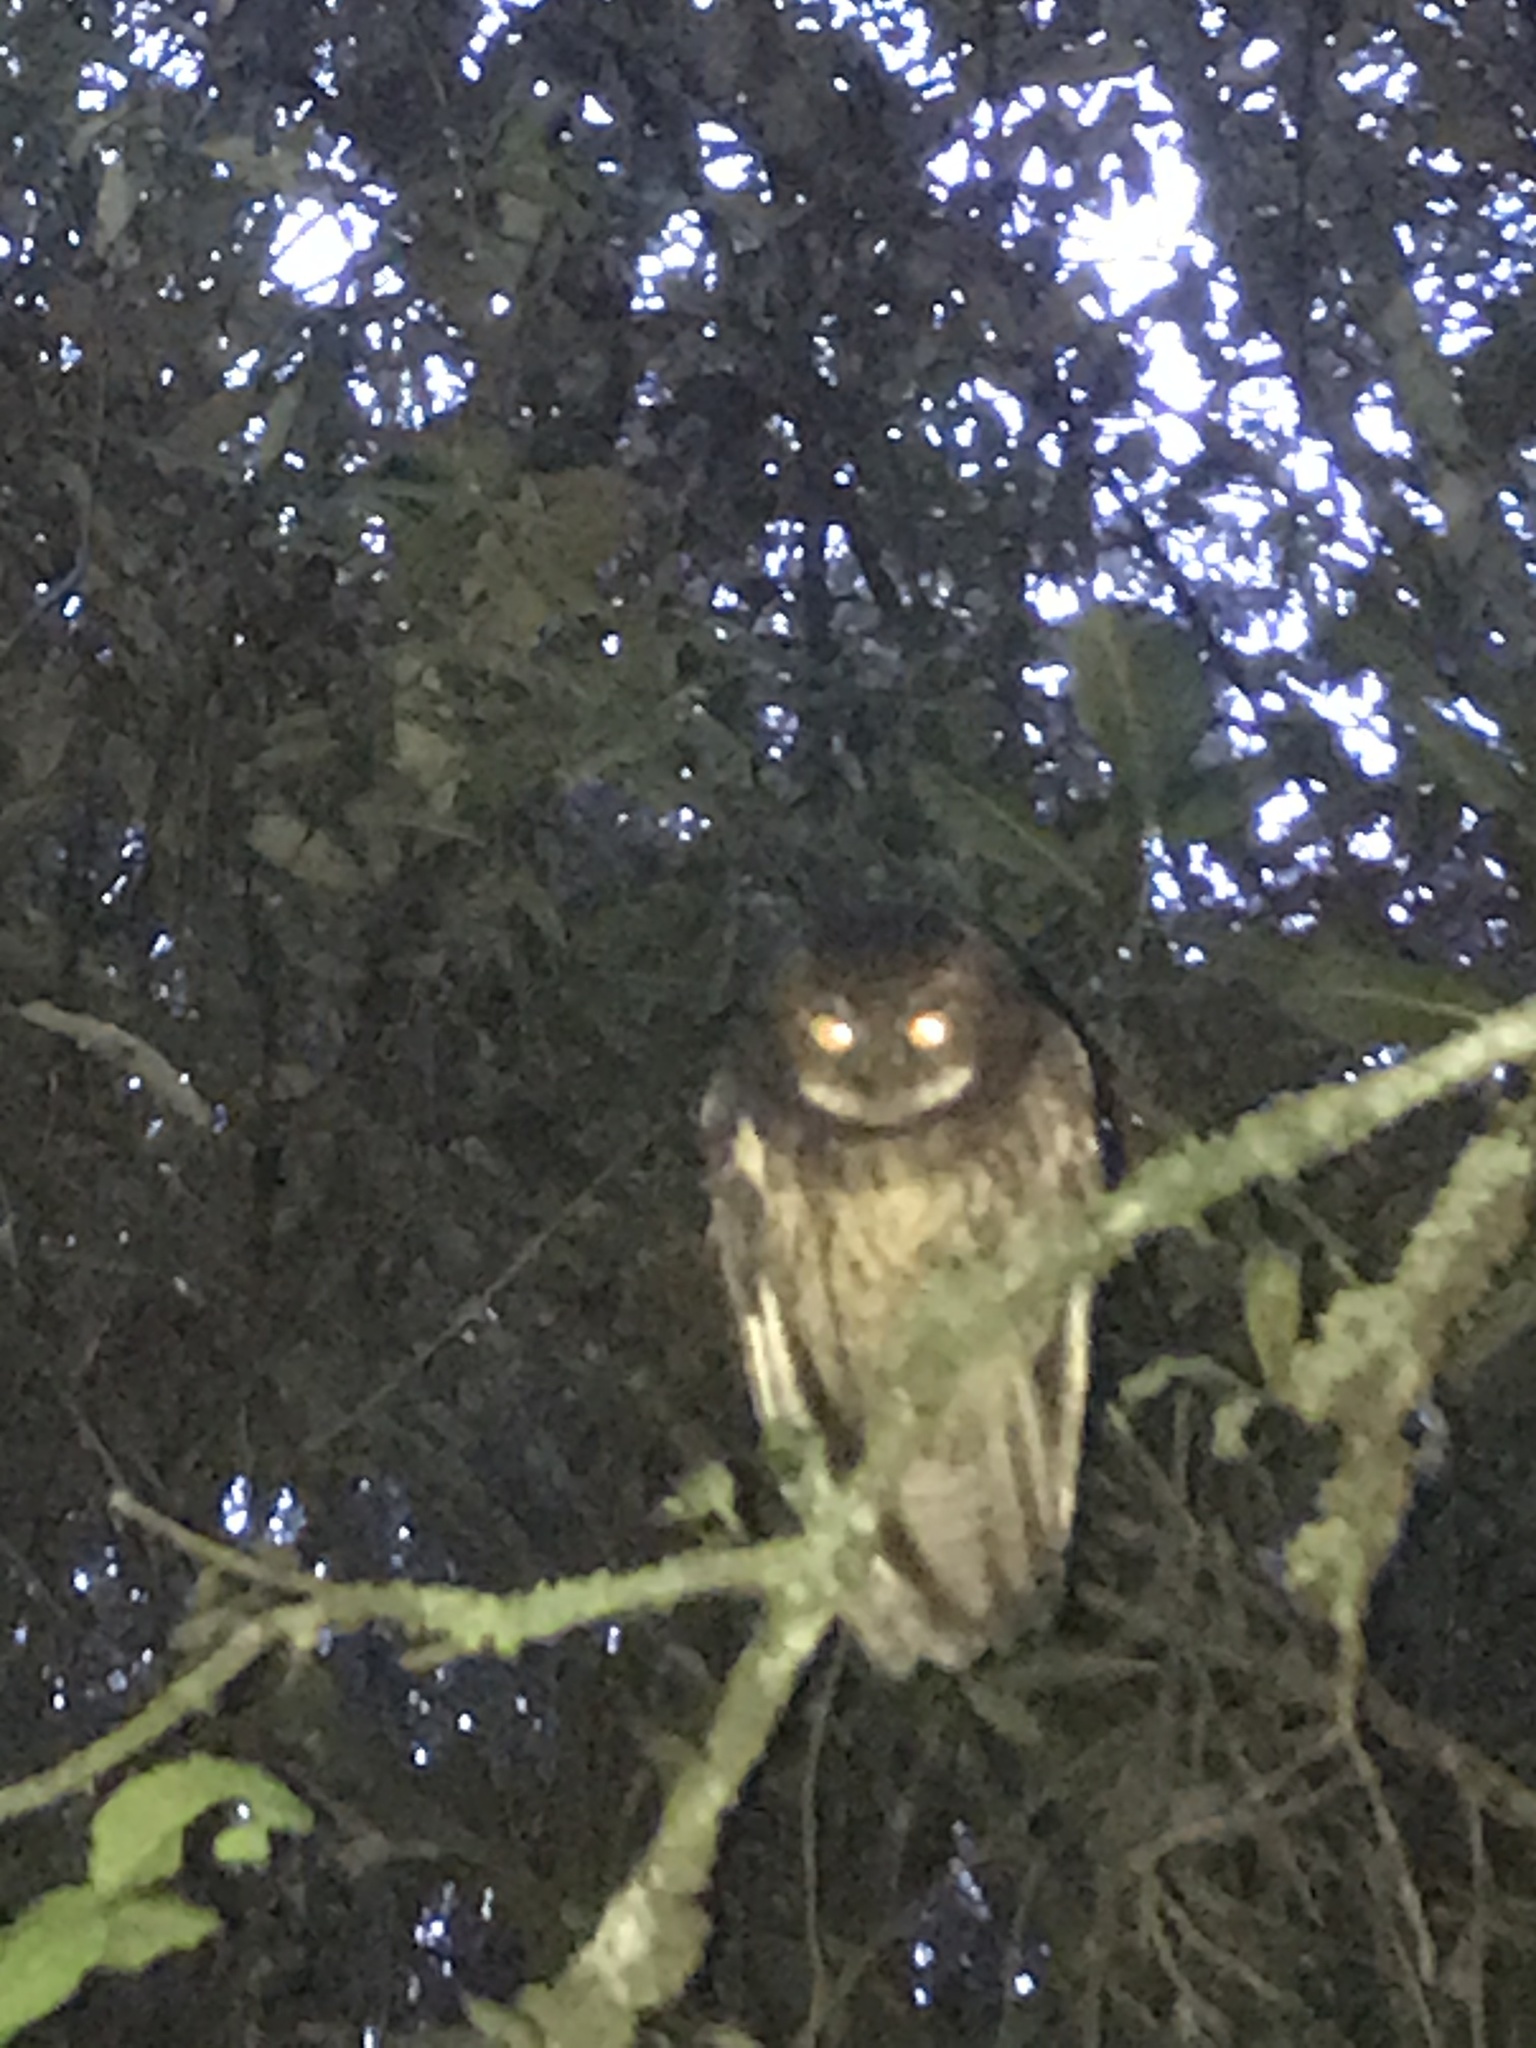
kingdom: Animalia
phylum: Chordata
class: Aves
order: Strigiformes
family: Strigidae
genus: Megascops
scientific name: Megascops albogularis
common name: White-throated screech owl
